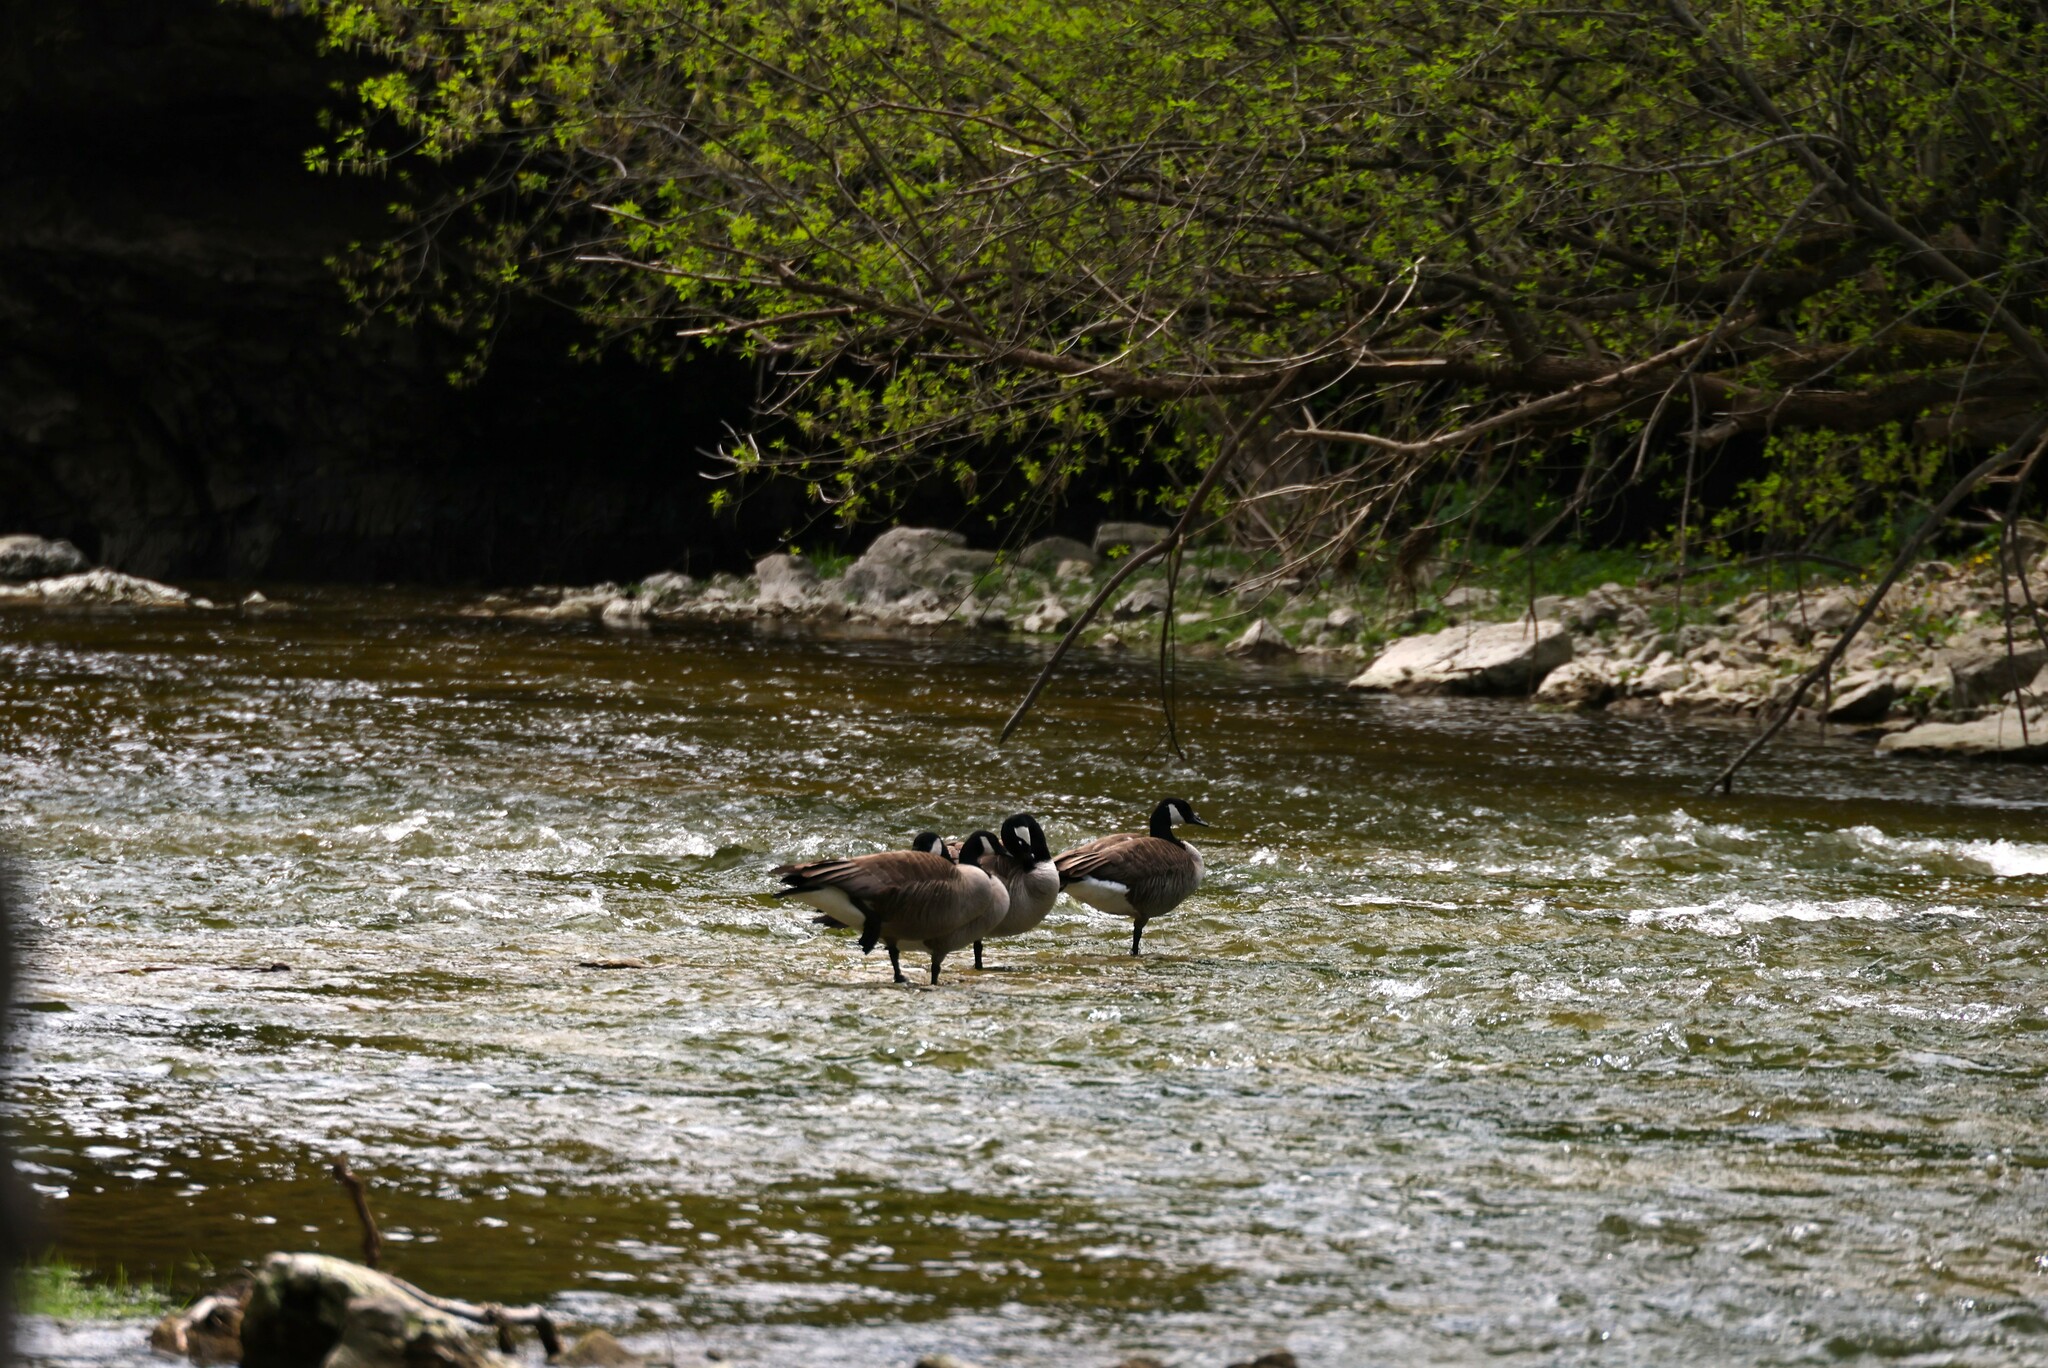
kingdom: Animalia
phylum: Chordata
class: Aves
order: Anseriformes
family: Anatidae
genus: Branta
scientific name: Branta canadensis
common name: Canada goose
